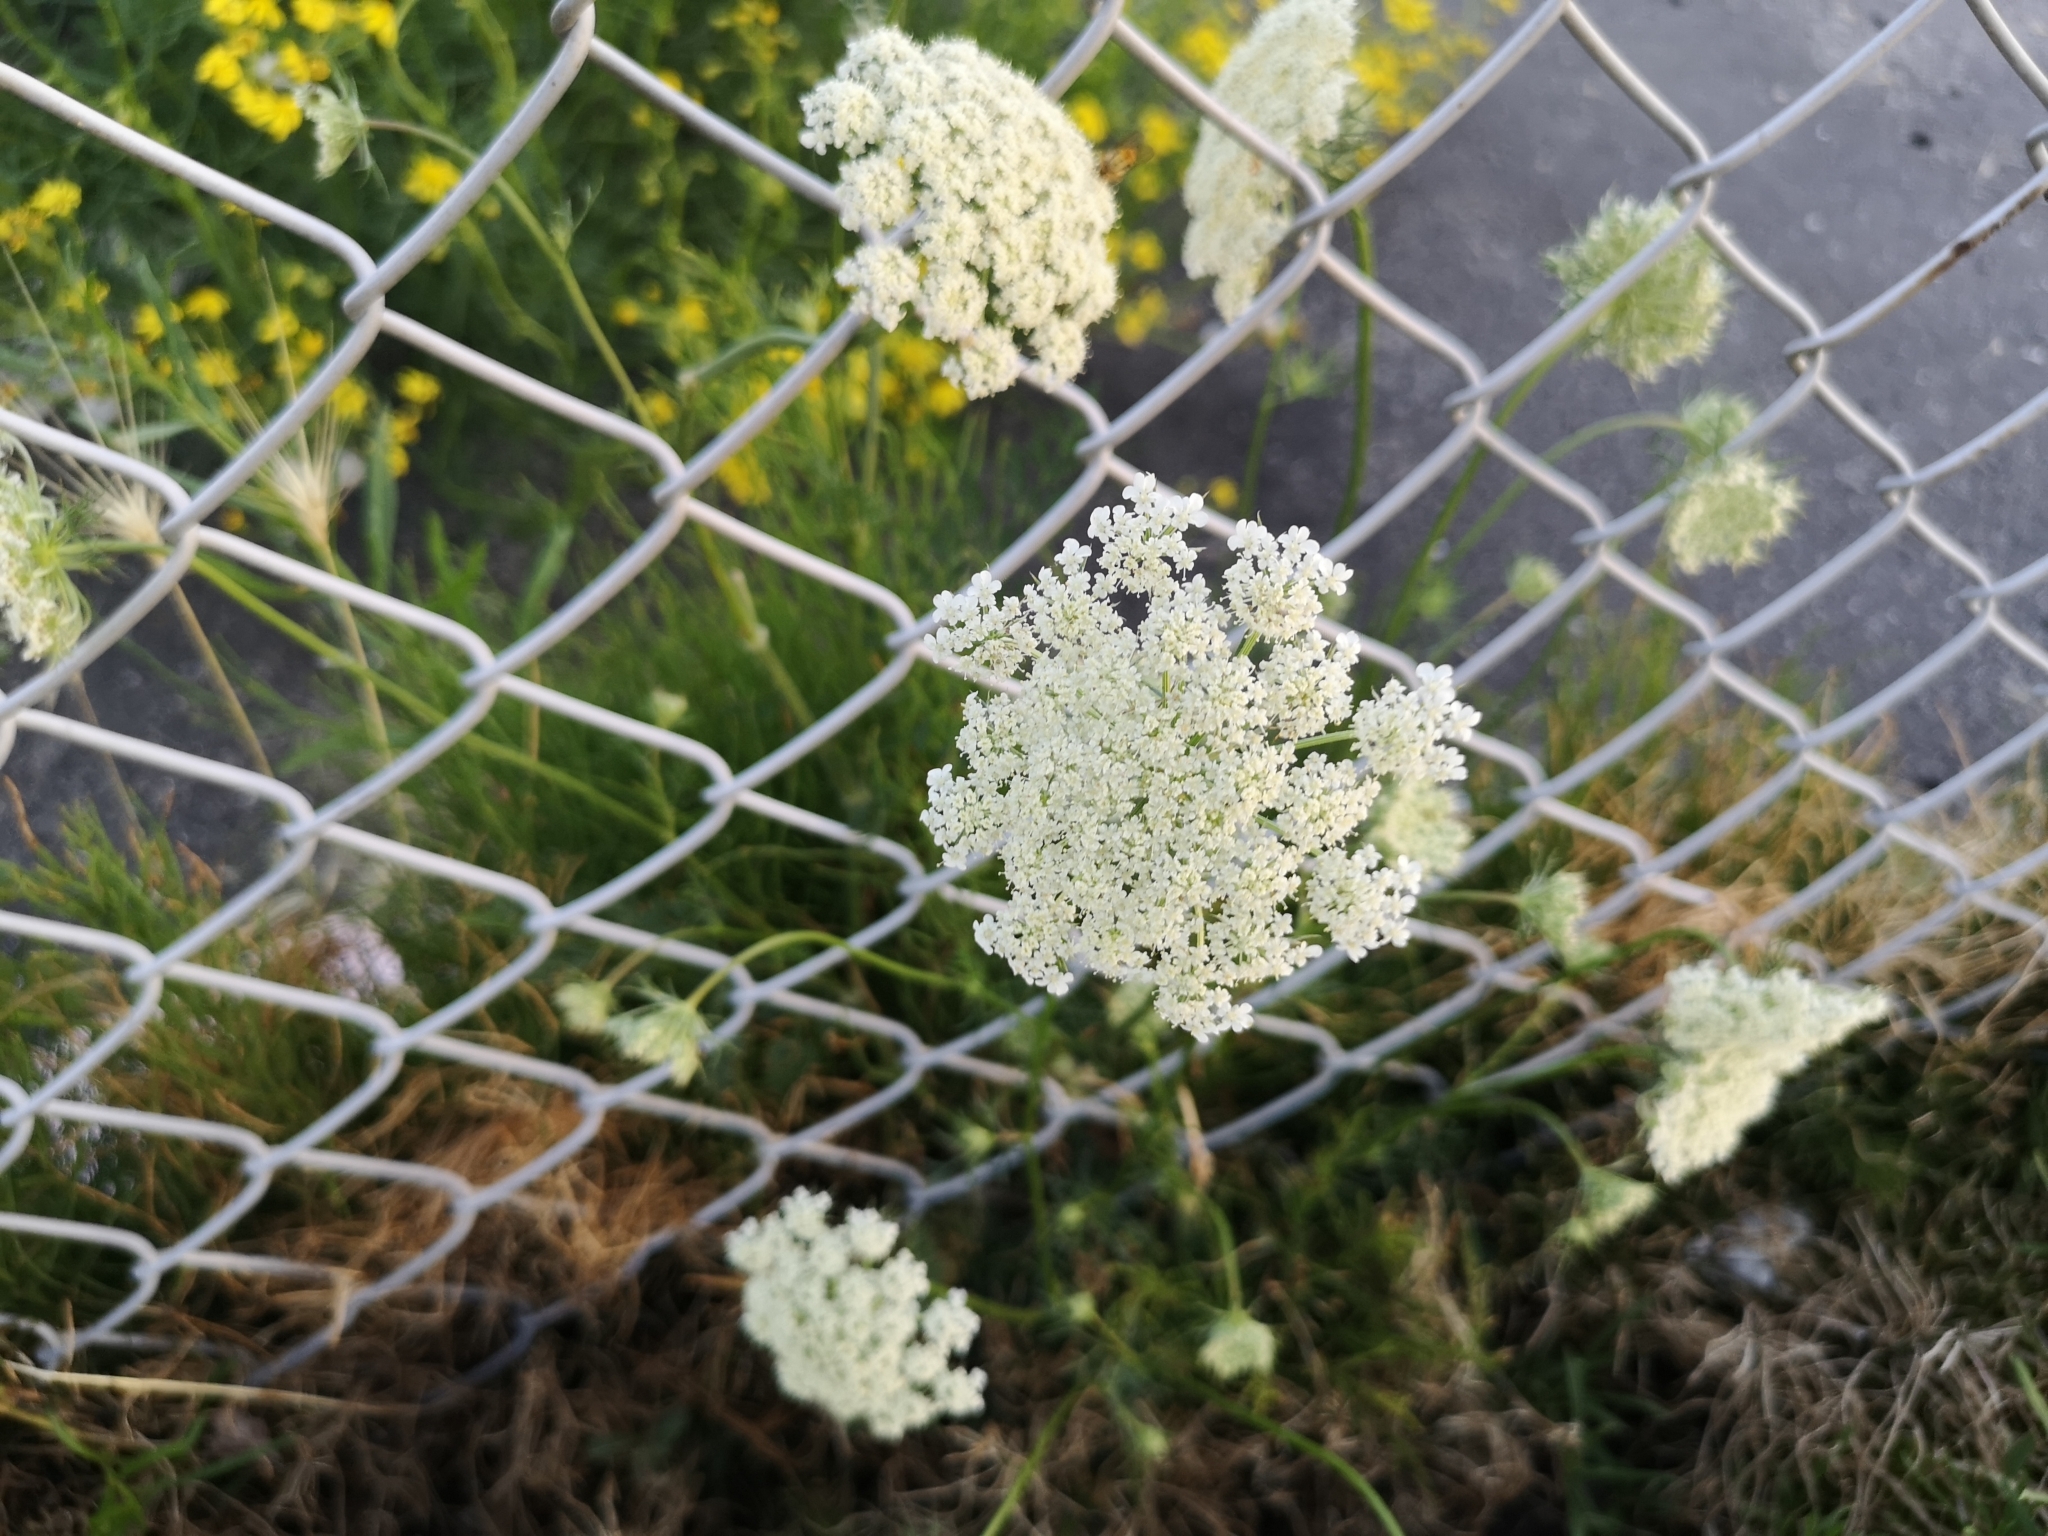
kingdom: Plantae
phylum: Tracheophyta
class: Magnoliopsida
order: Apiales
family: Apiaceae
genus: Daucus
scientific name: Daucus carota
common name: Wild carrot
